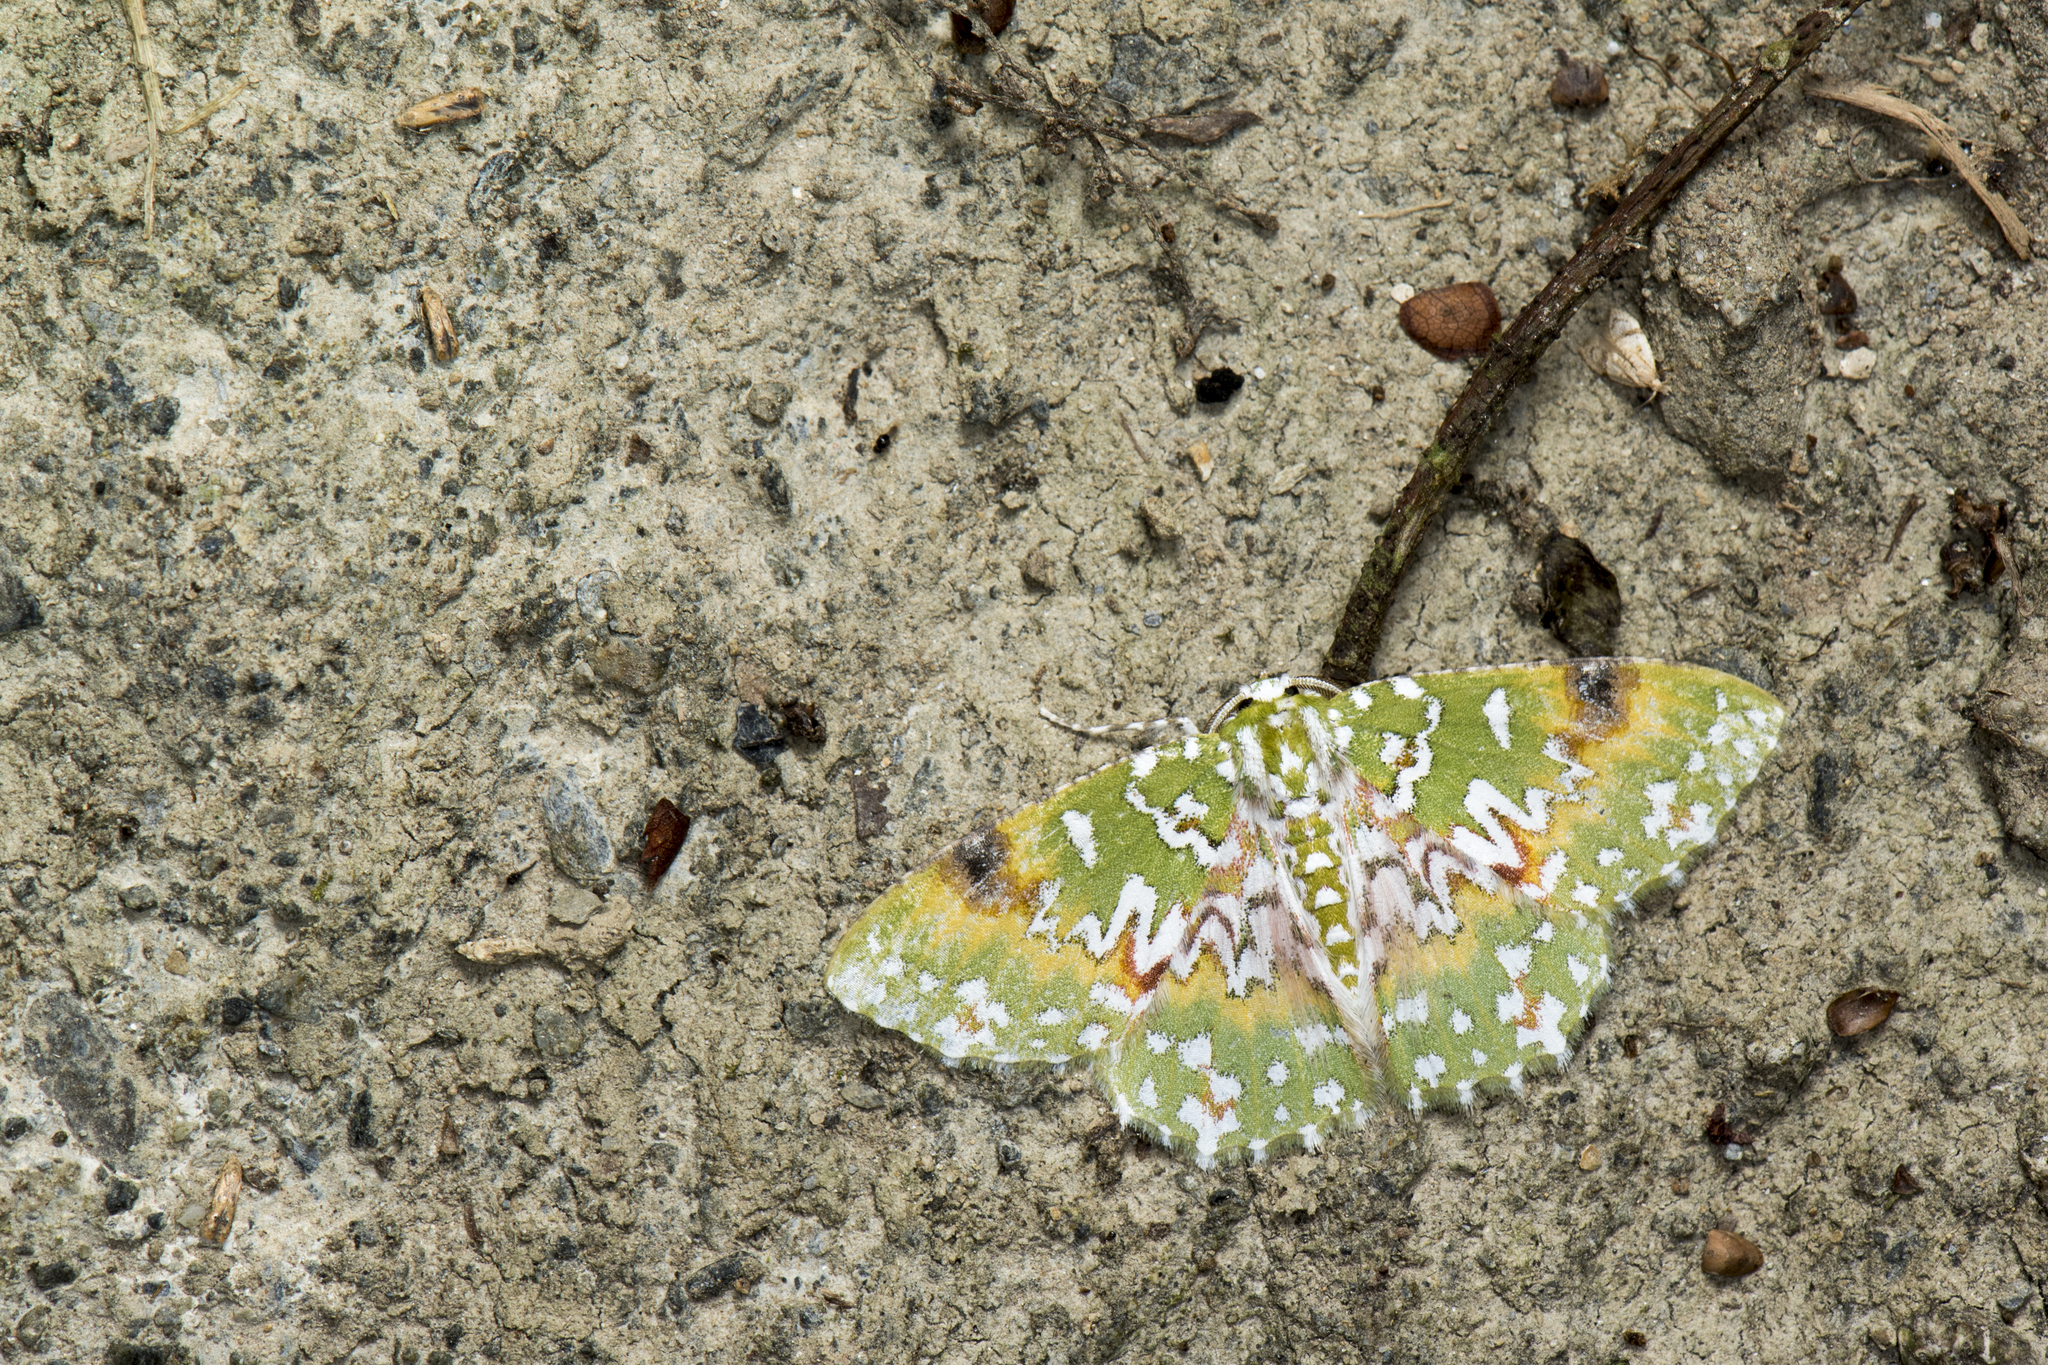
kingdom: Animalia
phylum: Arthropoda
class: Insecta
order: Lepidoptera
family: Geometridae
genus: Eucyclodes
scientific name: Eucyclodes gavissima
